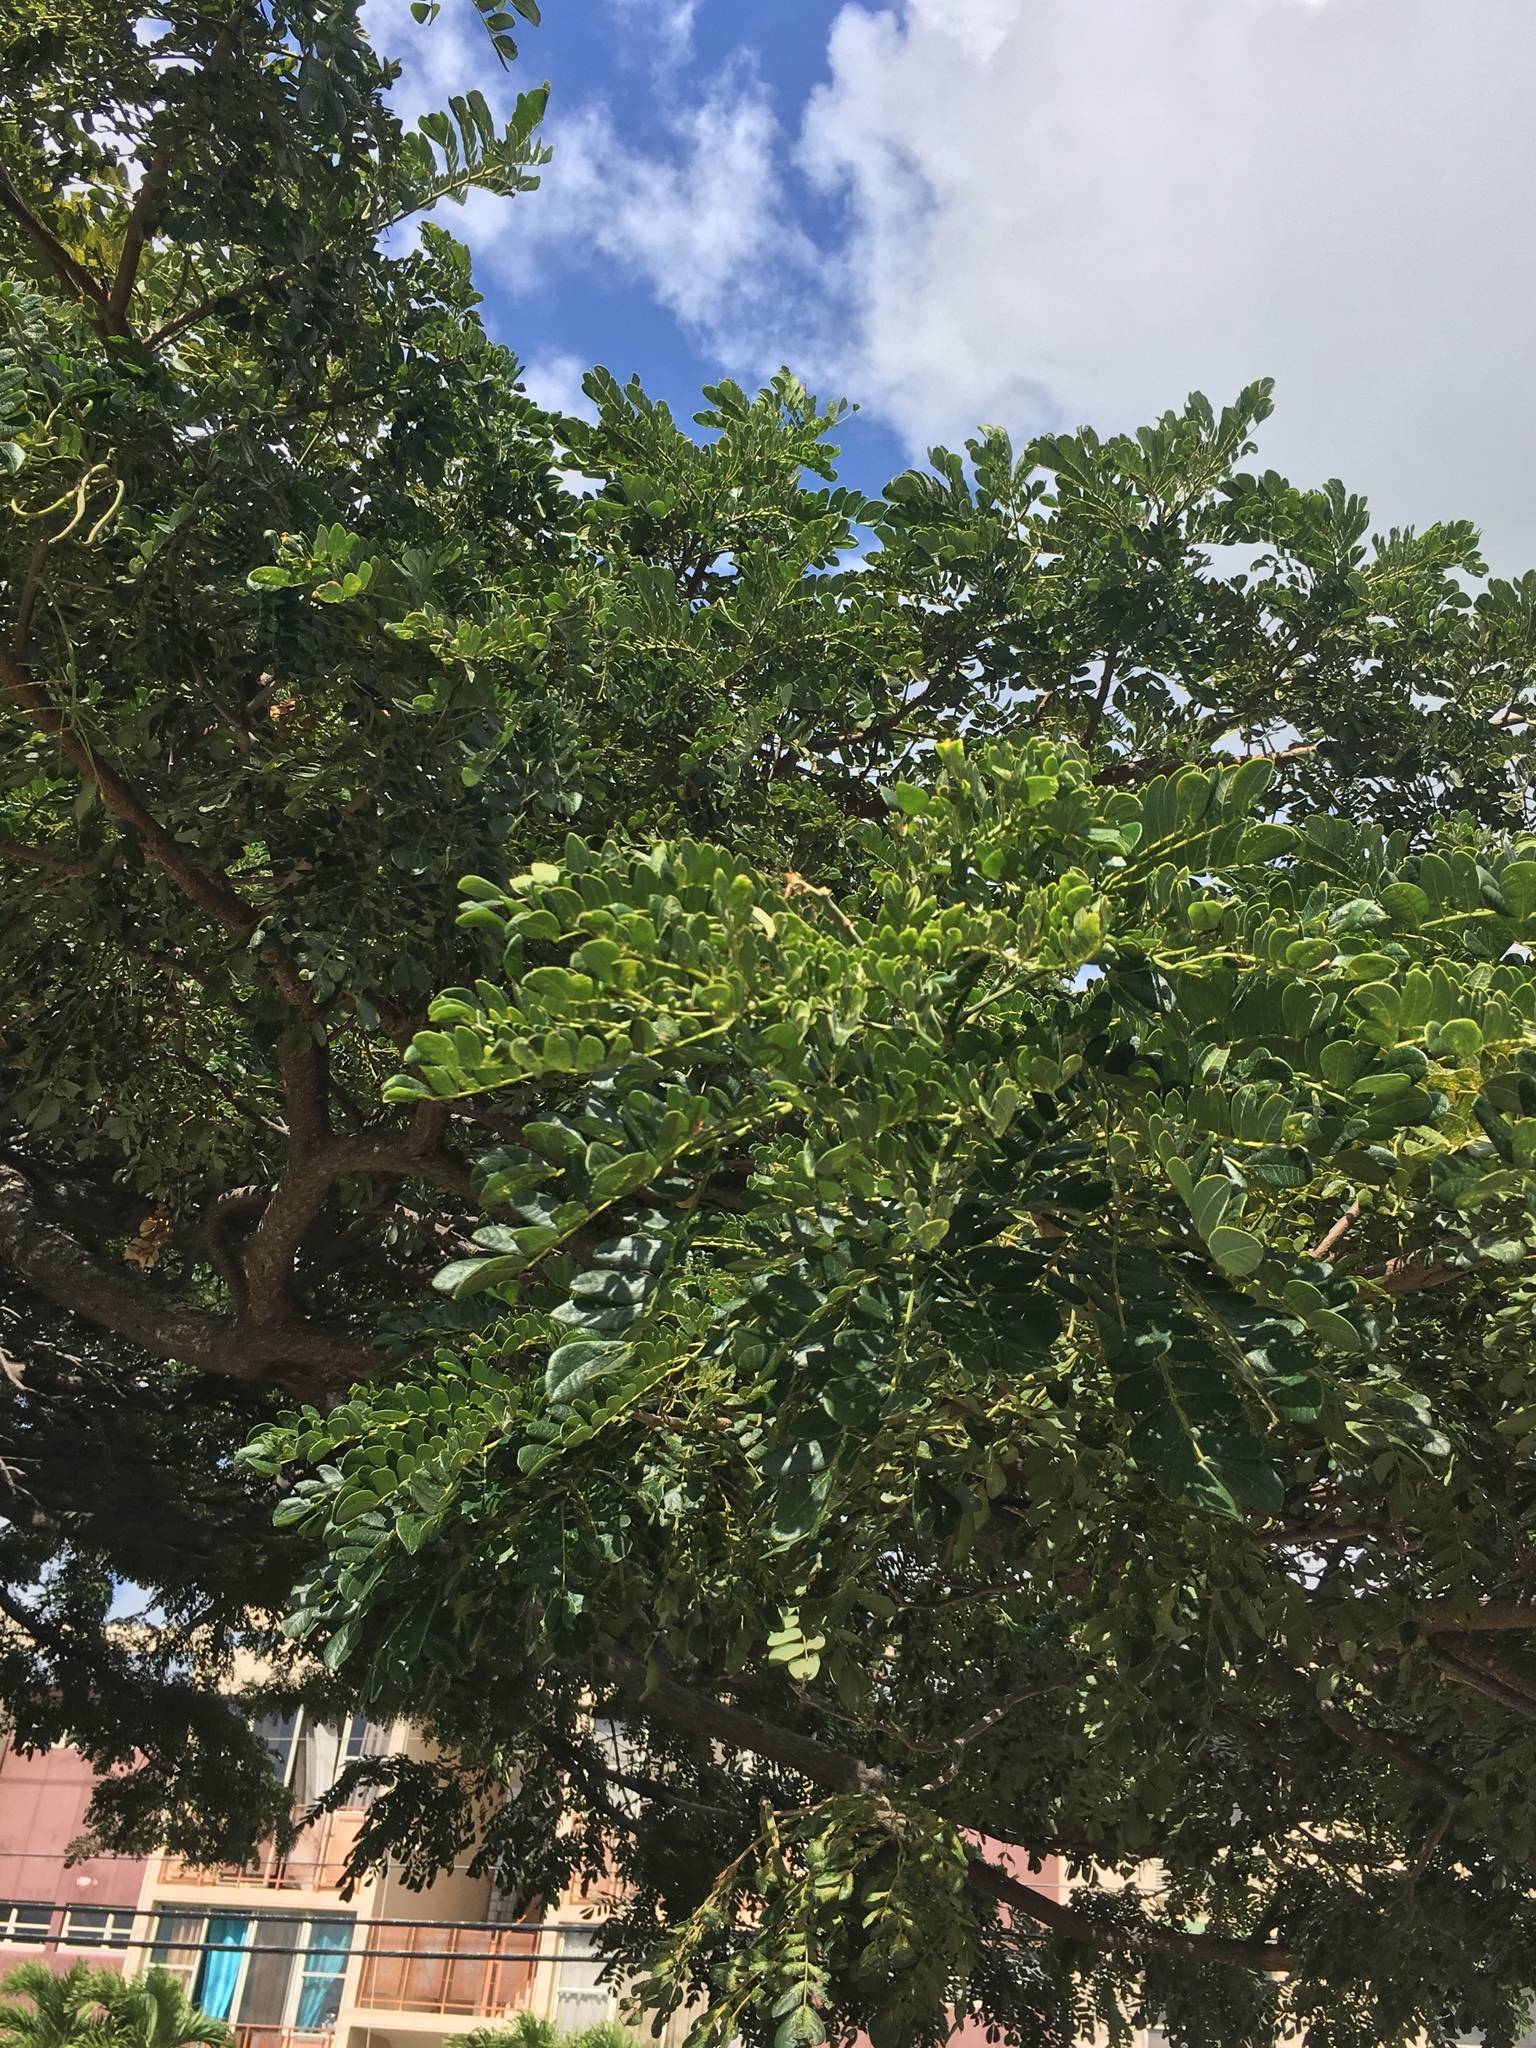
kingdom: Plantae
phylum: Tracheophyta
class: Magnoliopsida
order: Fabales
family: Fabaceae
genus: Samanea
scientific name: Samanea saman
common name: Raintree
